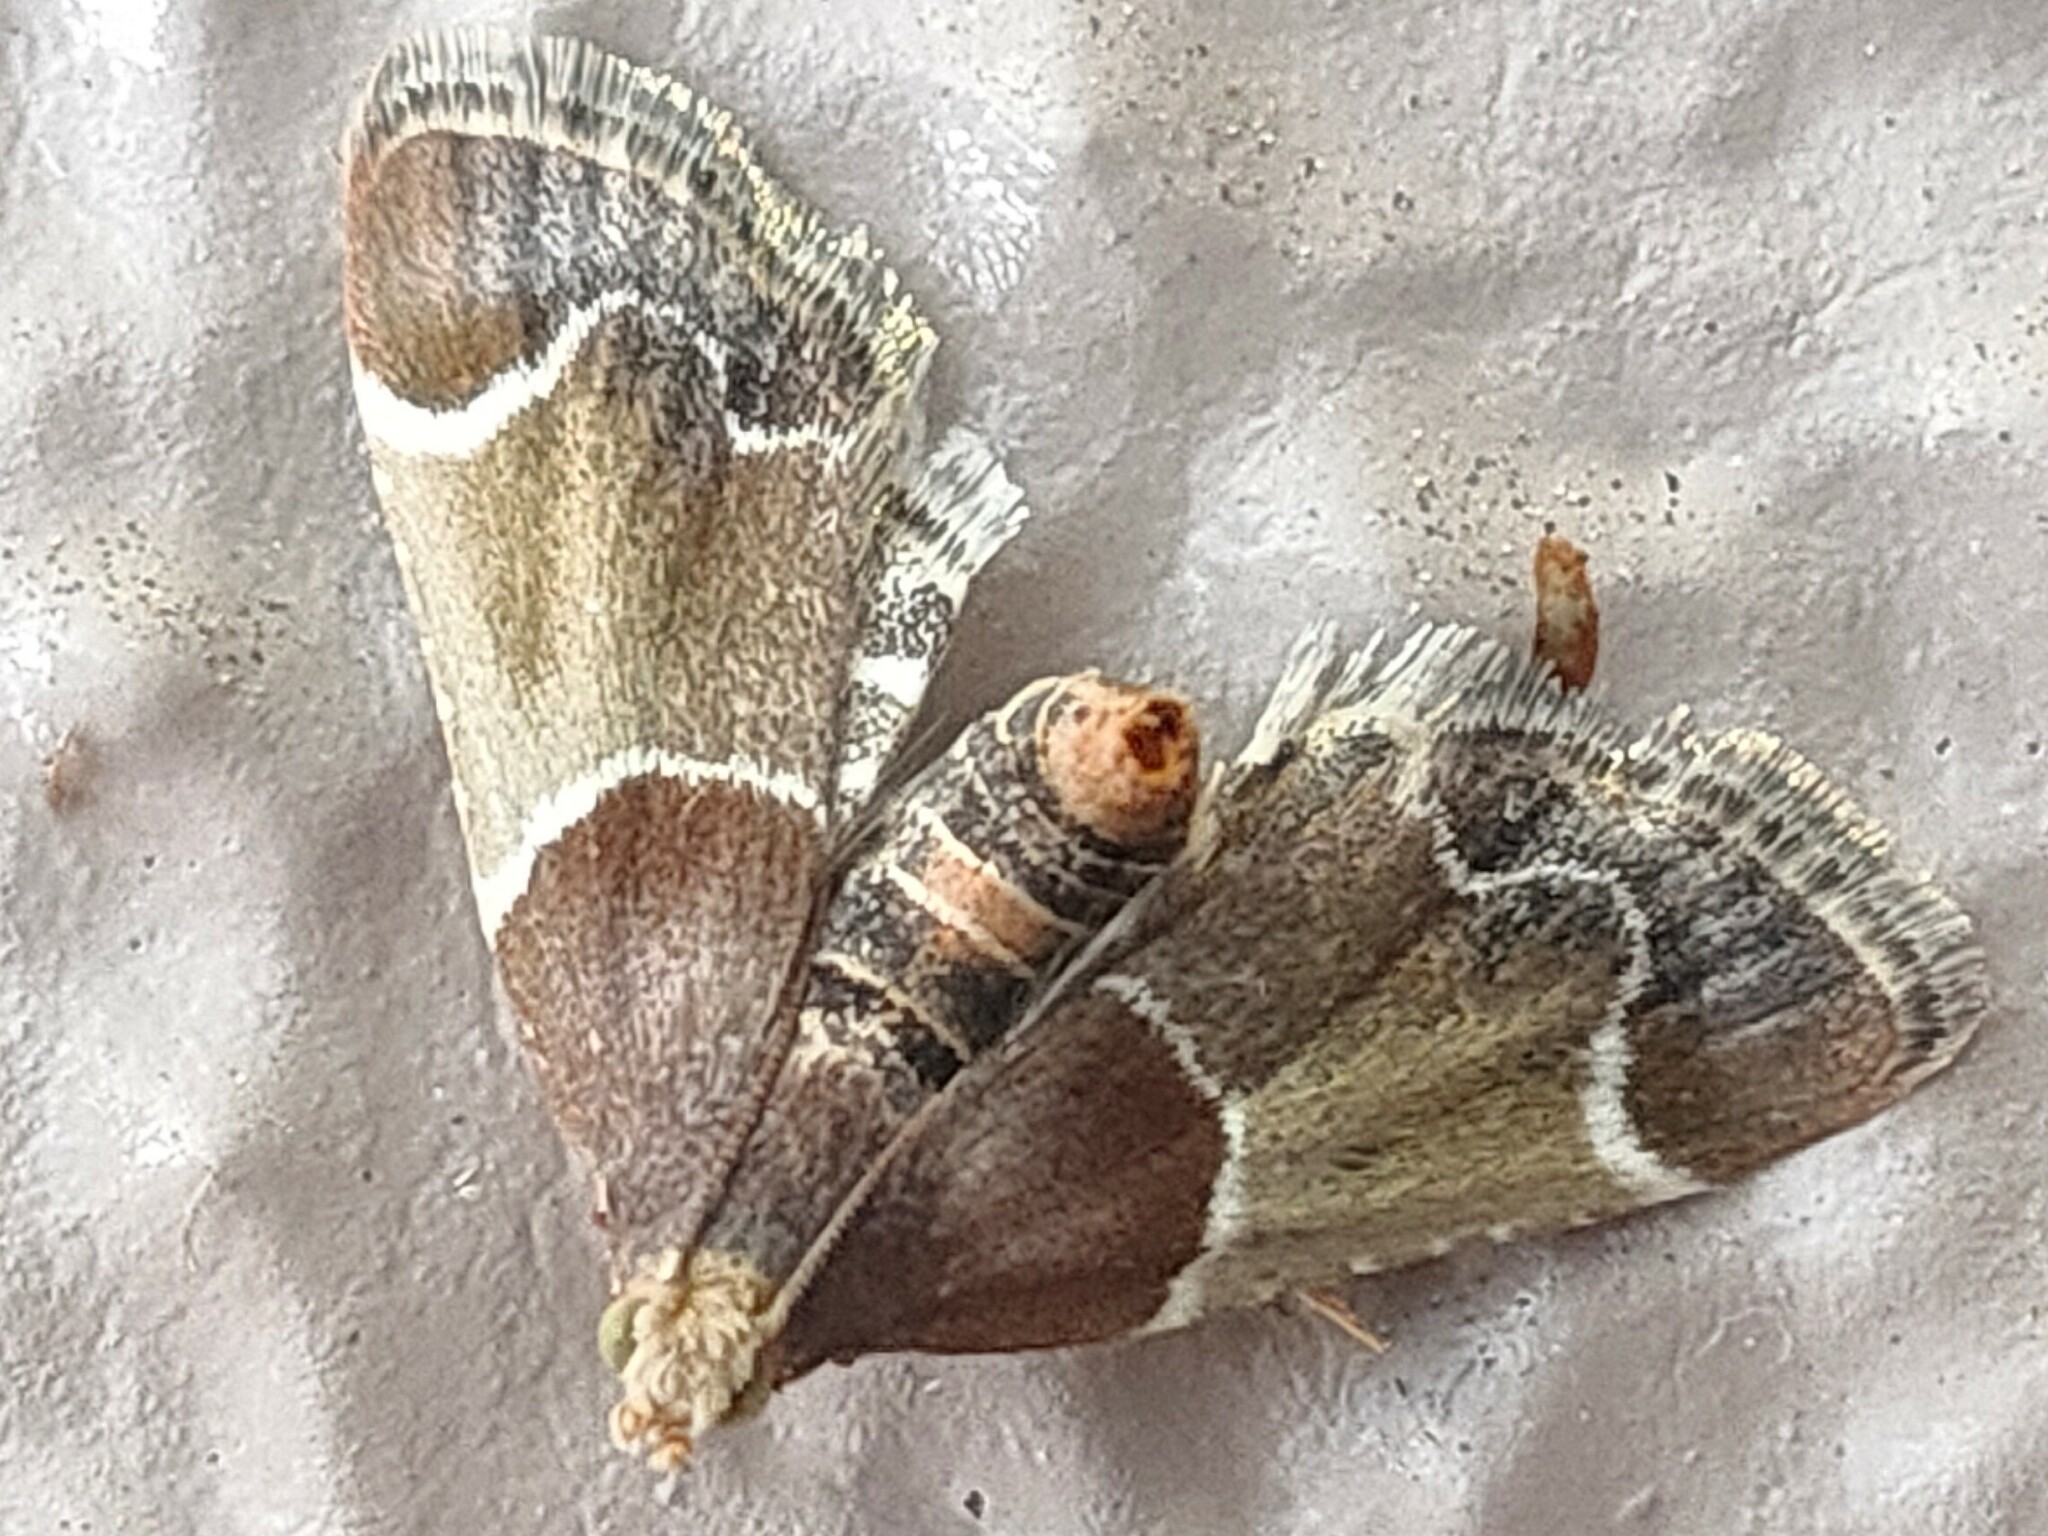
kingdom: Animalia
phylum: Arthropoda
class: Insecta
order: Lepidoptera
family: Pyralidae
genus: Pyralis
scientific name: Pyralis farinalis
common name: Meal moth
